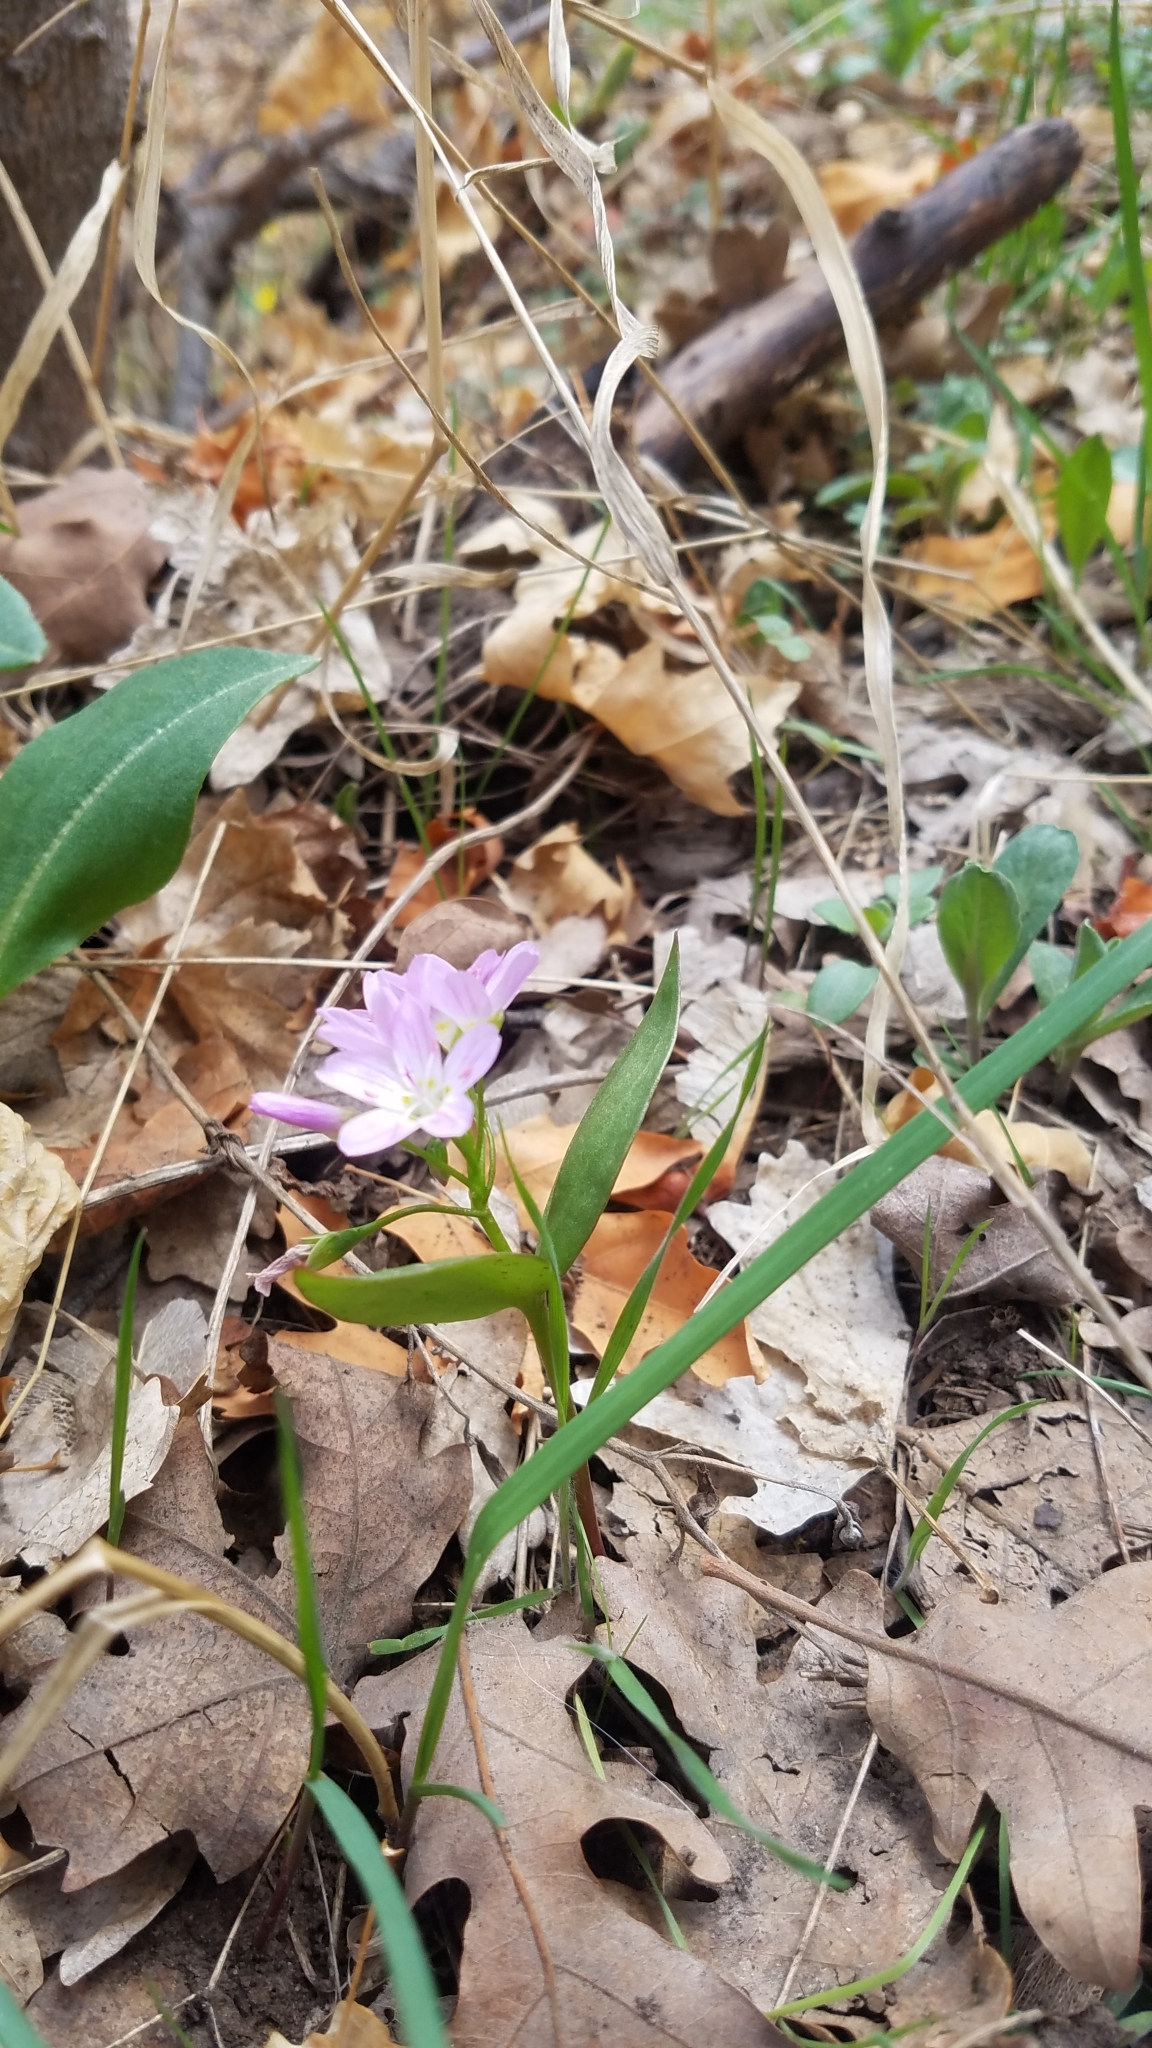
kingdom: Plantae
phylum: Tracheophyta
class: Magnoliopsida
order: Caryophyllales
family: Montiaceae
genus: Claytonia
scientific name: Claytonia lanceolata
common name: Western spring-beauty
